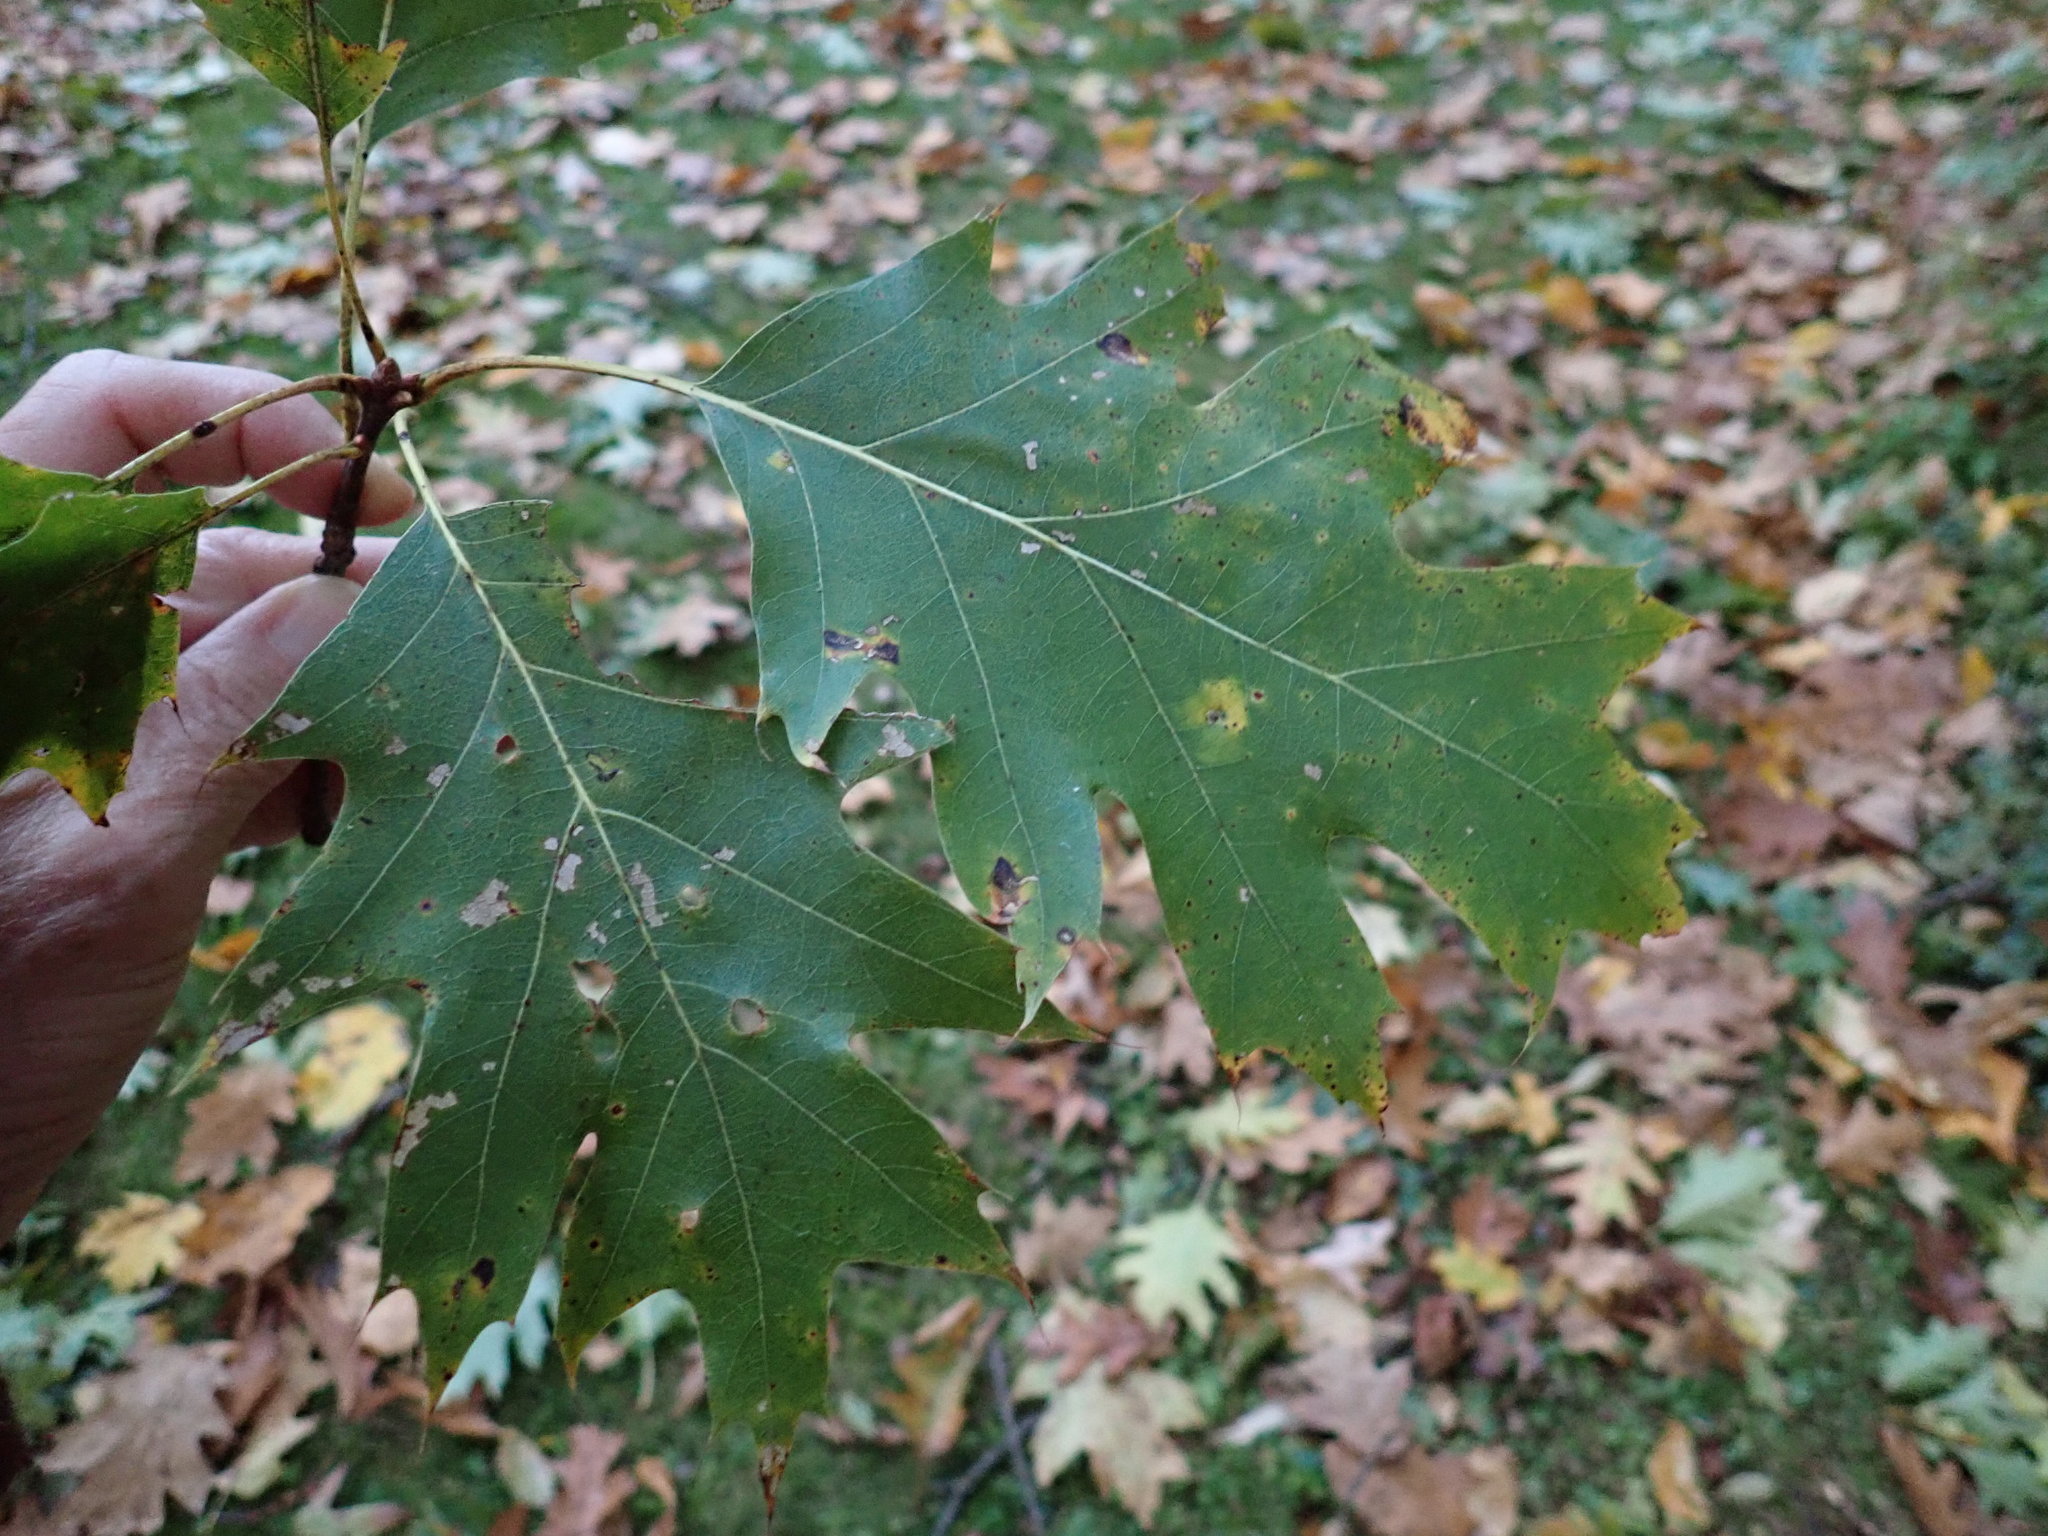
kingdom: Plantae
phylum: Tracheophyta
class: Magnoliopsida
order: Fagales
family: Fagaceae
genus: Quercus
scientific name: Quercus rubra
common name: Red oak
